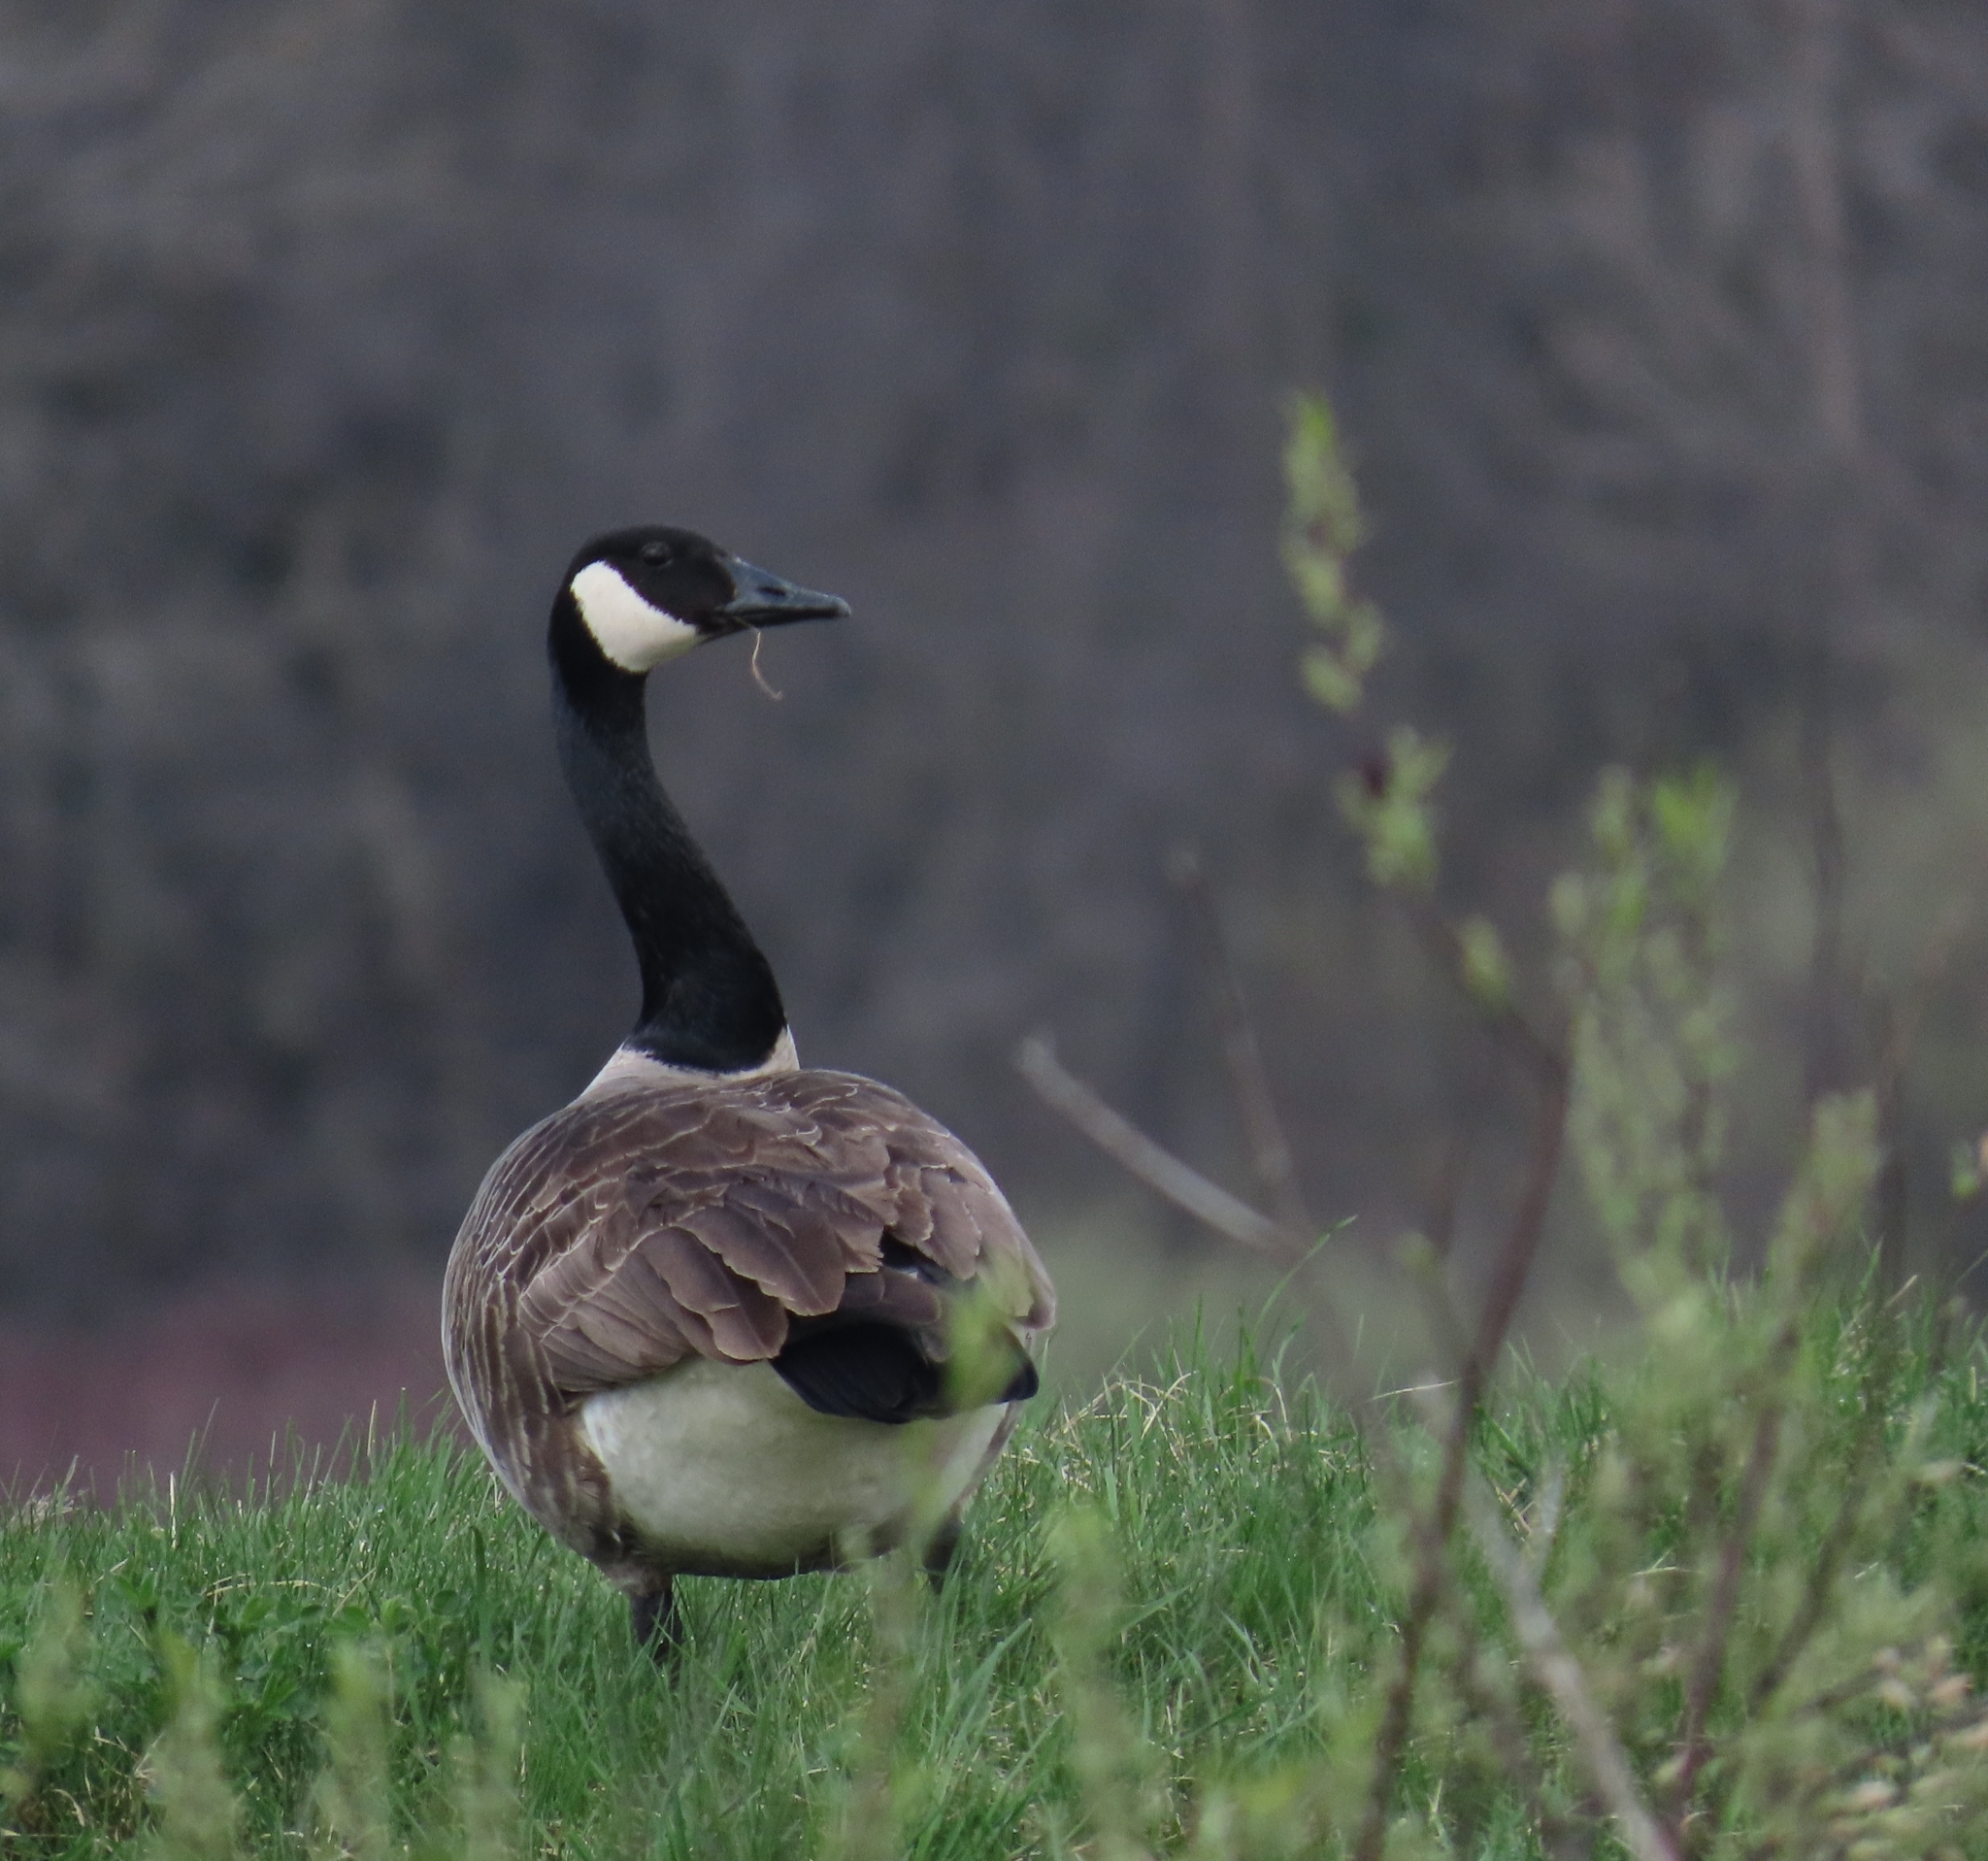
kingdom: Animalia
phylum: Chordata
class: Aves
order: Anseriformes
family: Anatidae
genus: Branta
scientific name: Branta canadensis
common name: Canada goose
